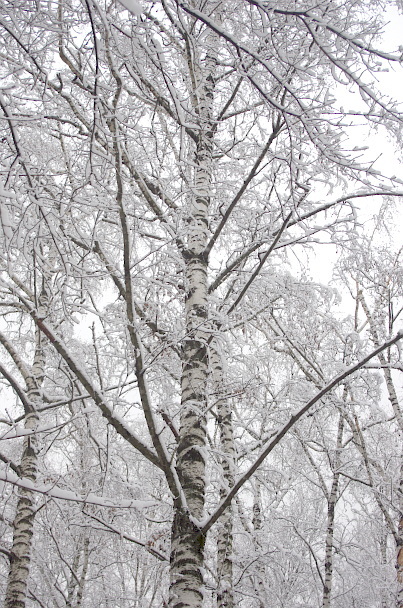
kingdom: Plantae
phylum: Tracheophyta
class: Magnoliopsida
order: Fagales
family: Betulaceae
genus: Betula
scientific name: Betula pendula
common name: Silver birch
